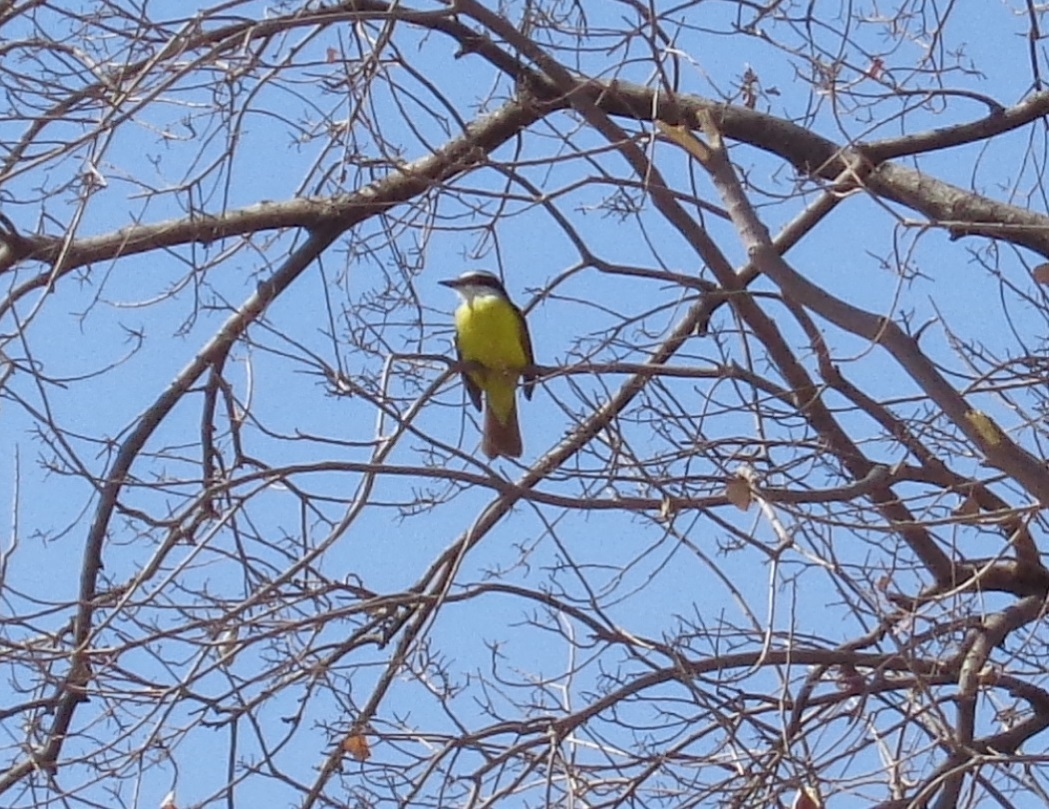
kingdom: Animalia
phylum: Chordata
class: Aves
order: Passeriformes
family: Tyrannidae
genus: Pitangus
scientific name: Pitangus sulphuratus
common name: Great kiskadee
